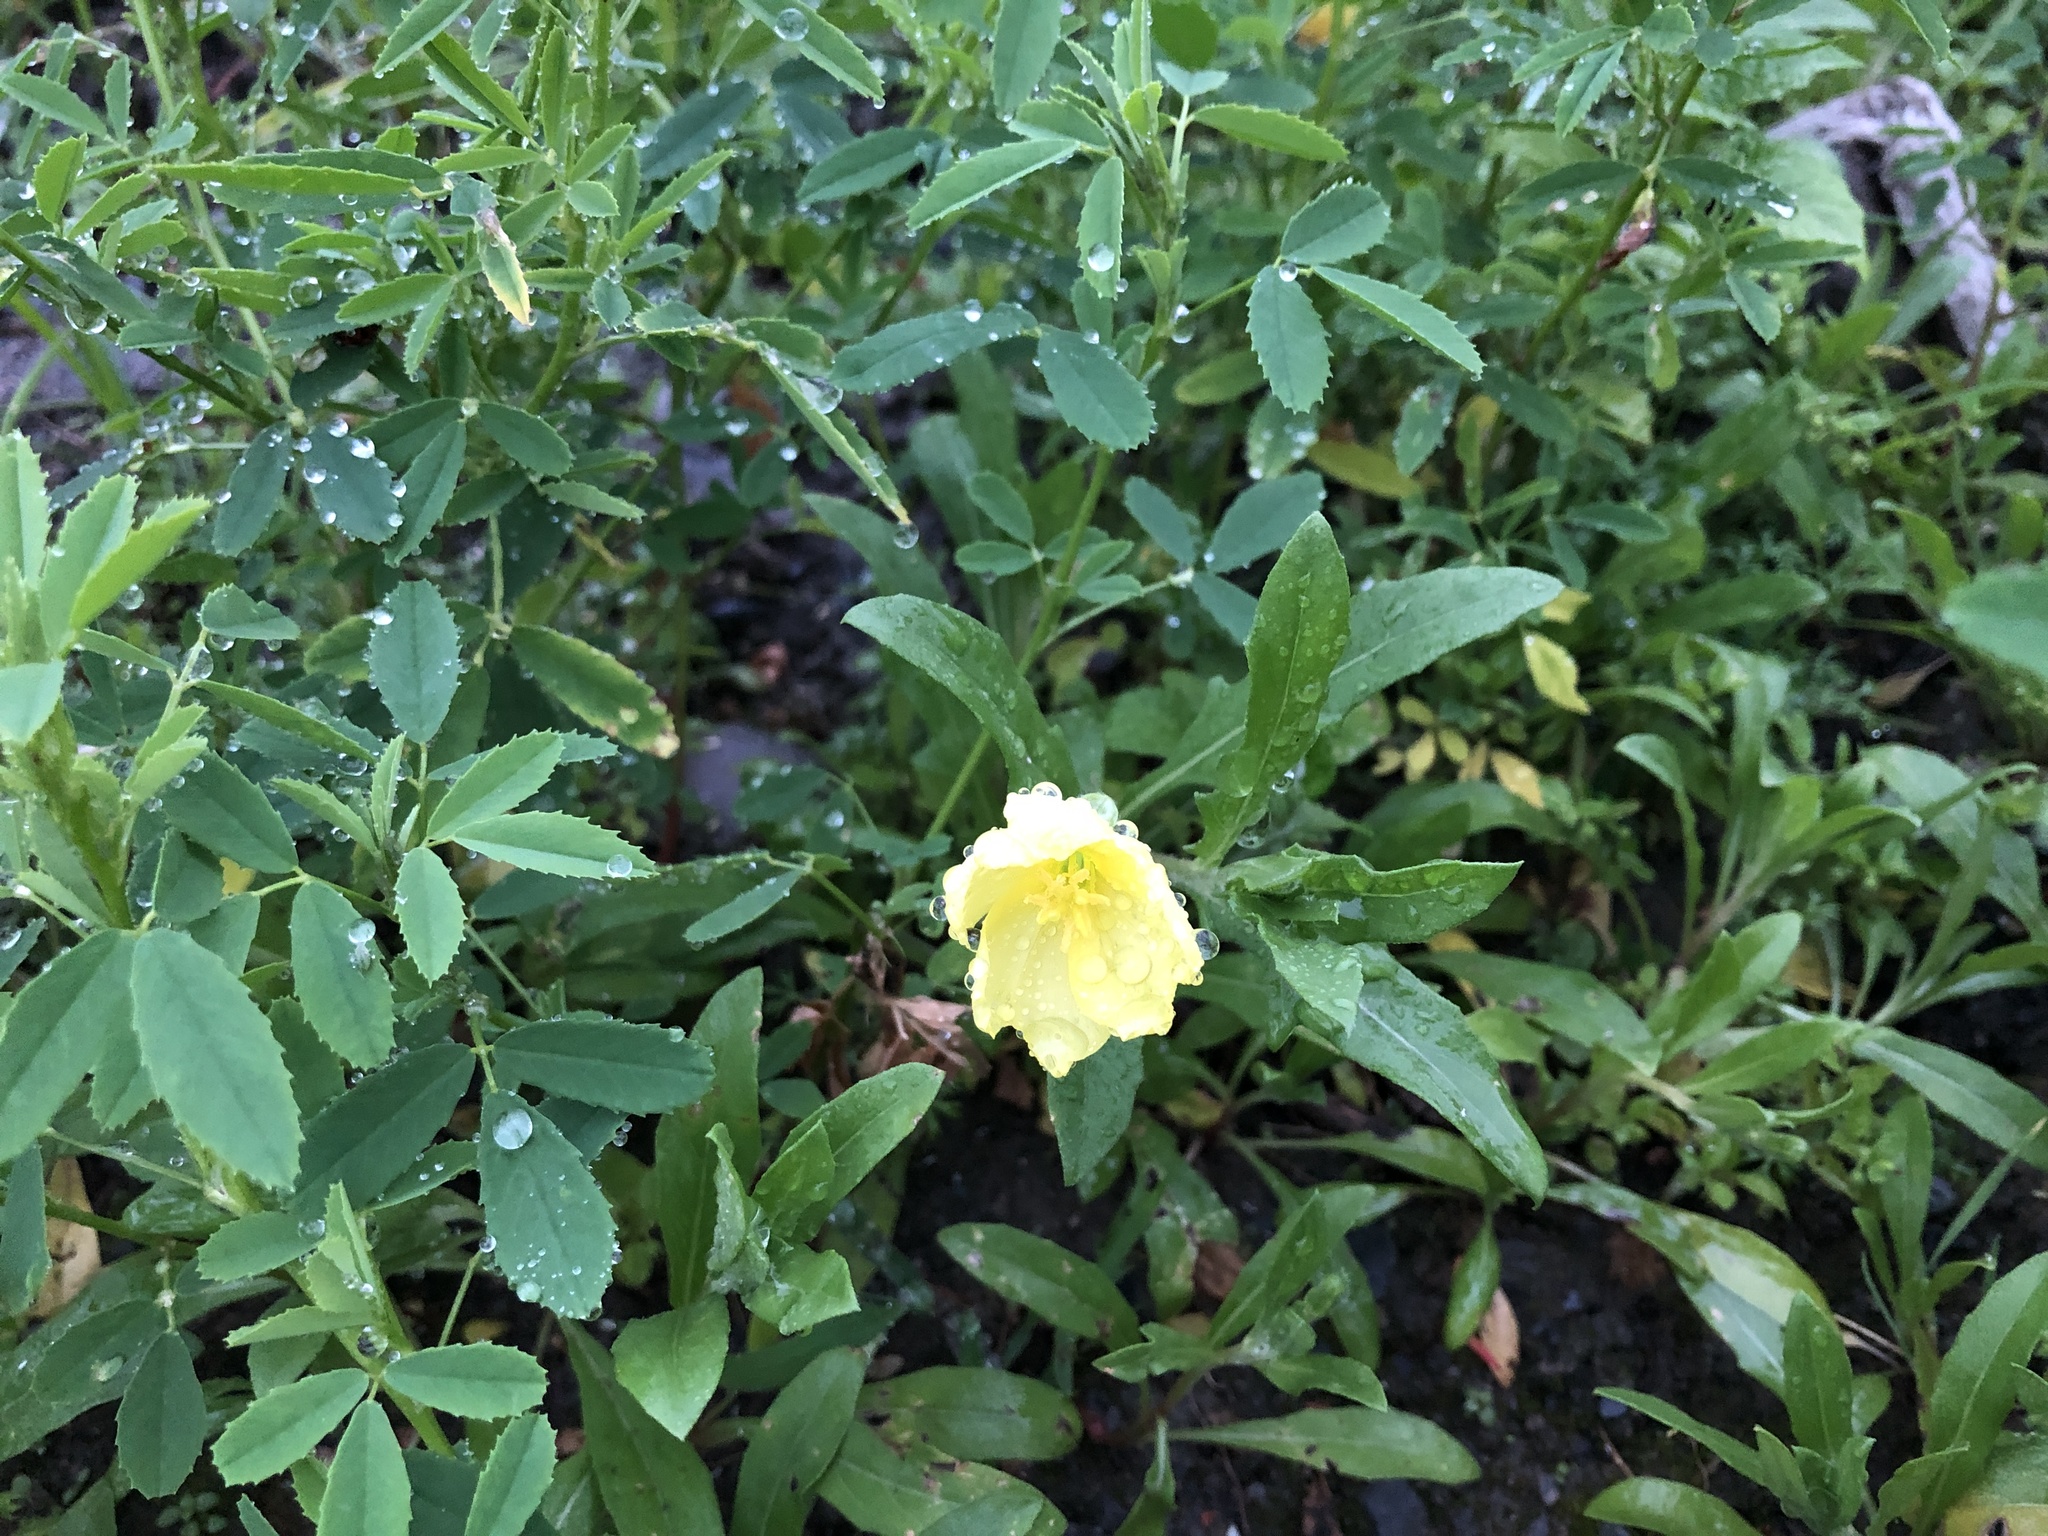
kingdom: Plantae
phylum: Tracheophyta
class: Magnoliopsida
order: Myrtales
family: Onagraceae
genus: Oenothera
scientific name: Oenothera laciniata
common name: Cut-leaved evening-primrose
